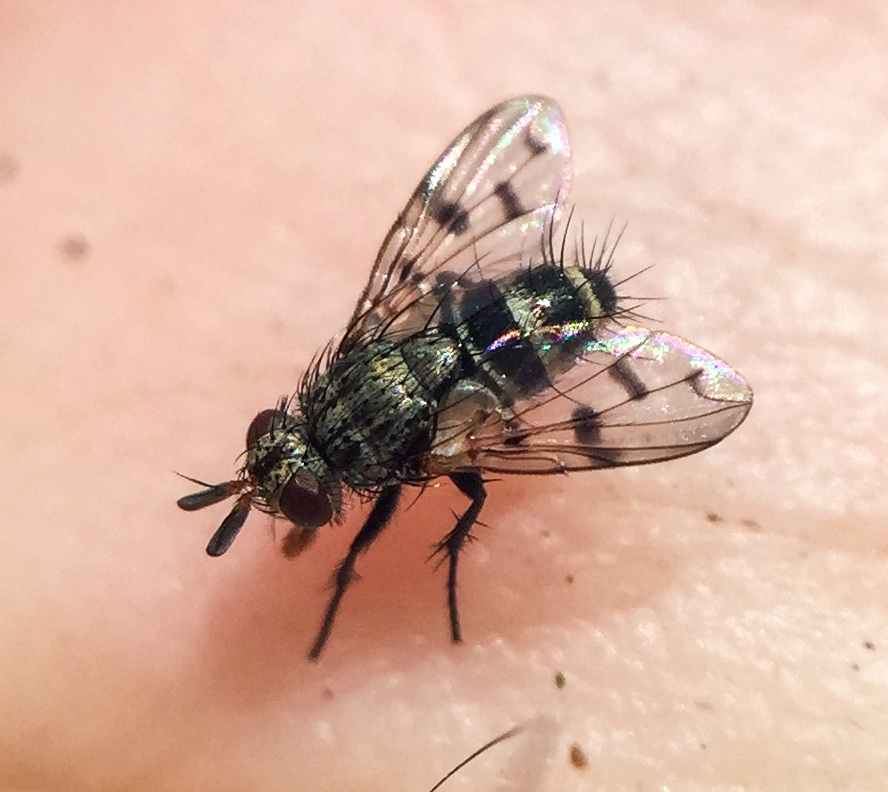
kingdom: Animalia
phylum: Arthropoda
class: Insecta
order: Diptera
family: Tachinidae
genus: Lypha
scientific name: Lypha harringtoni
